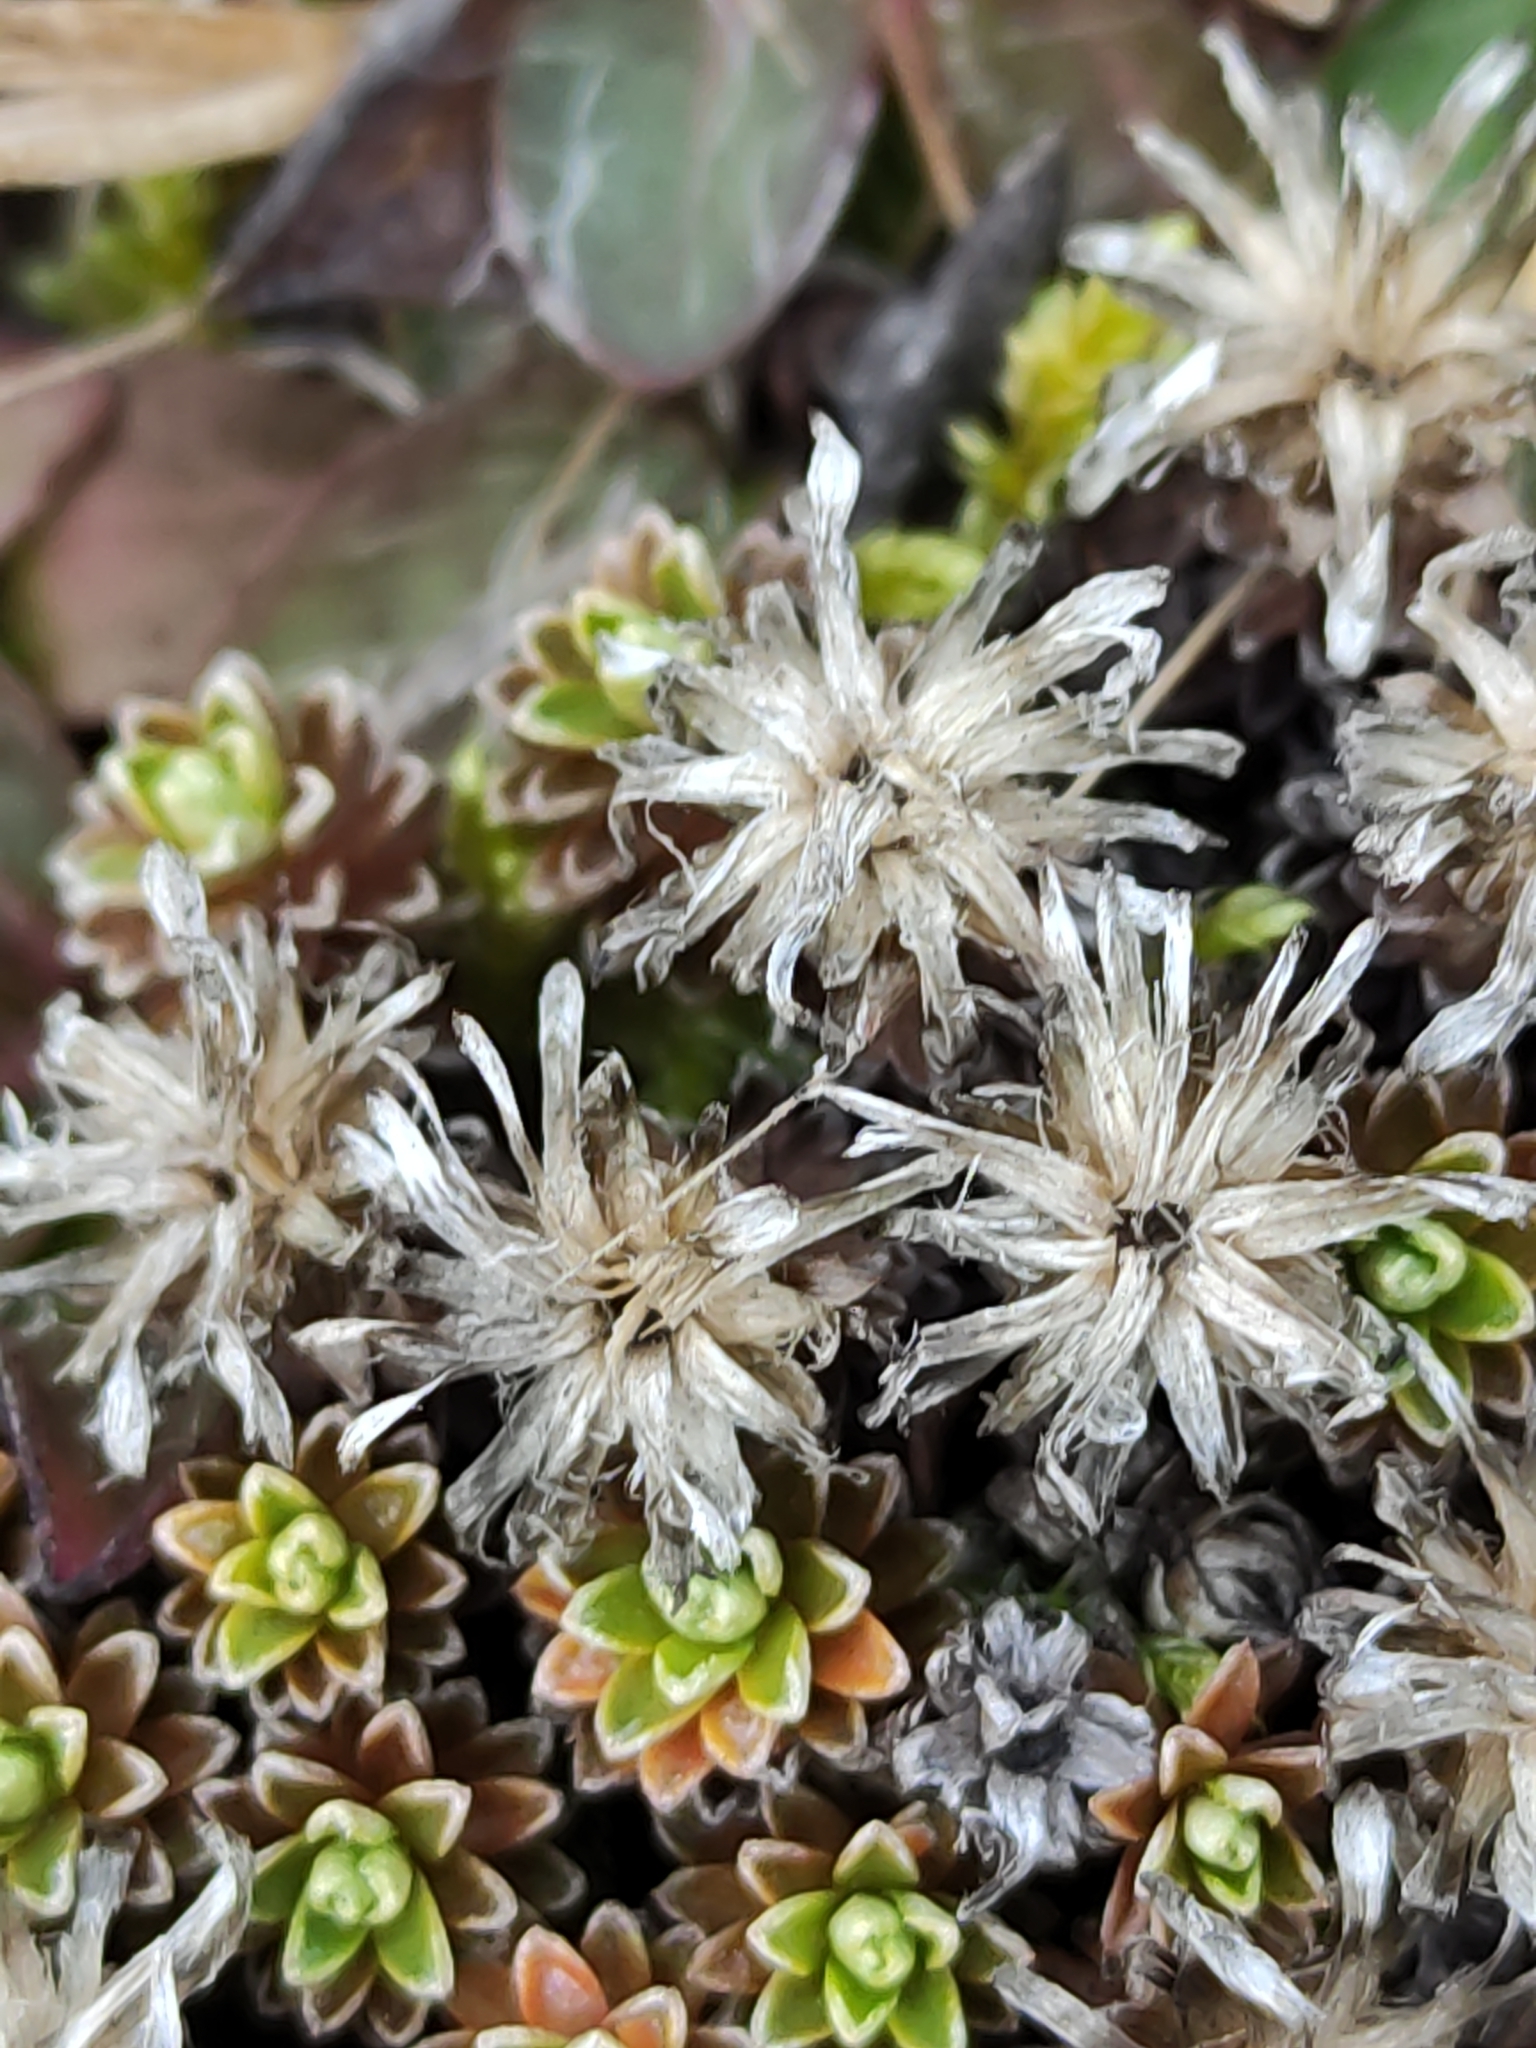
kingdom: Plantae
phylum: Tracheophyta
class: Magnoliopsida
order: Asterales
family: Asteraceae
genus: Raoulia
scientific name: Raoulia subsericea
